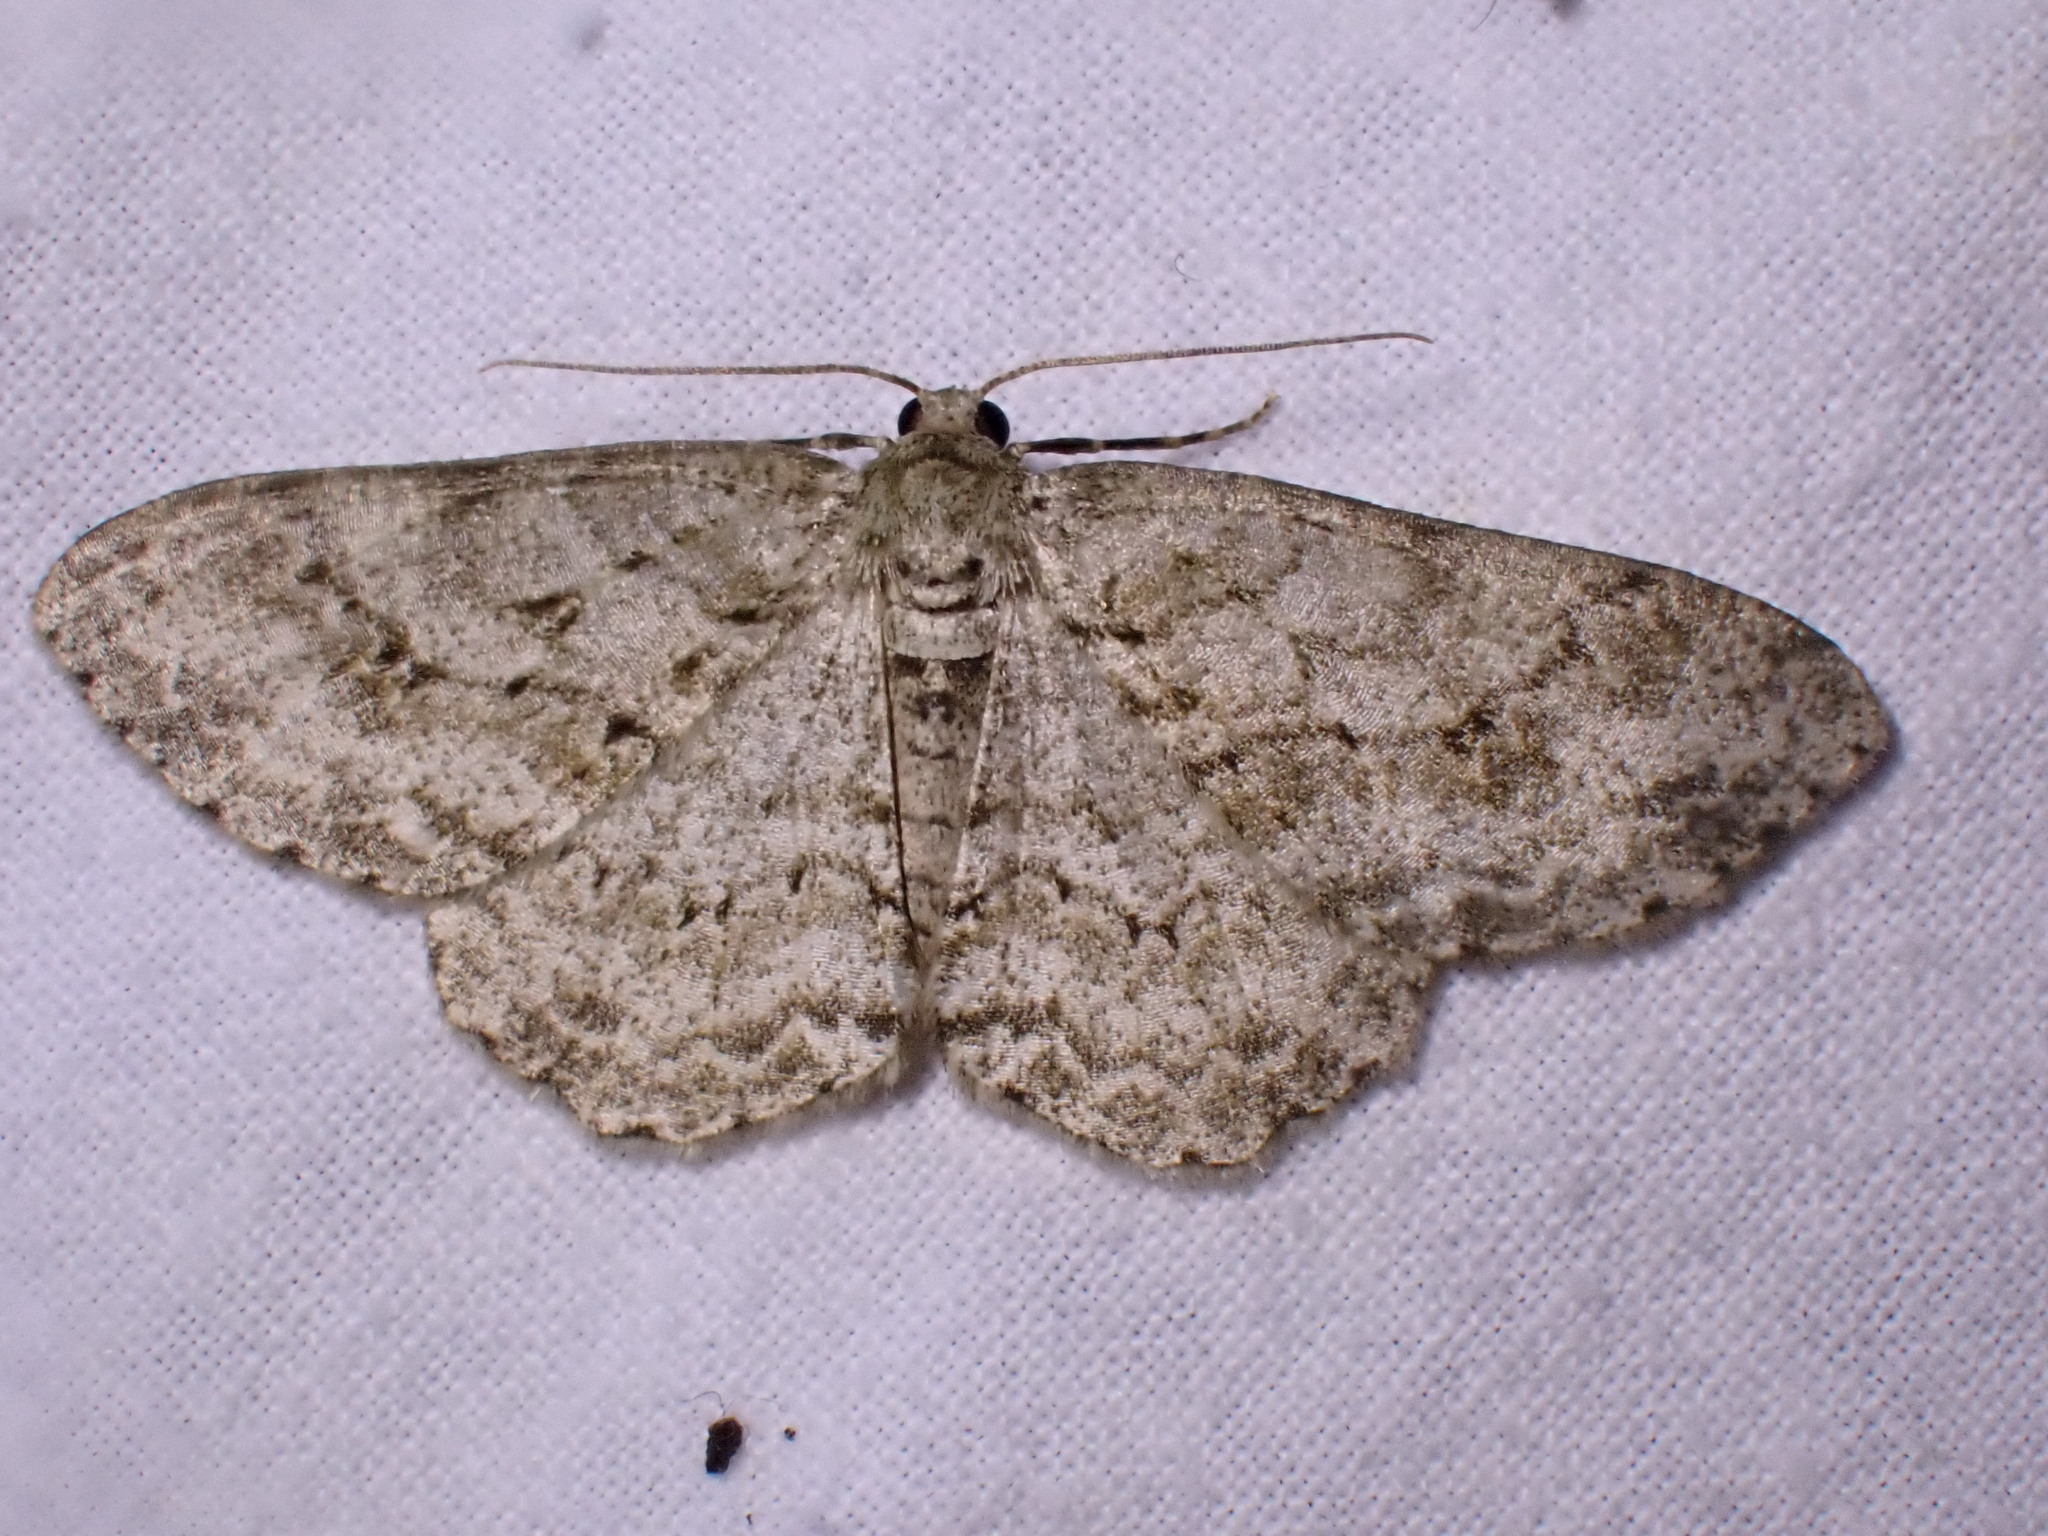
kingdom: Animalia
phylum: Arthropoda
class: Insecta
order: Lepidoptera
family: Geometridae
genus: Ectropis
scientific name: Ectropis crepuscularia
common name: Engrailed
